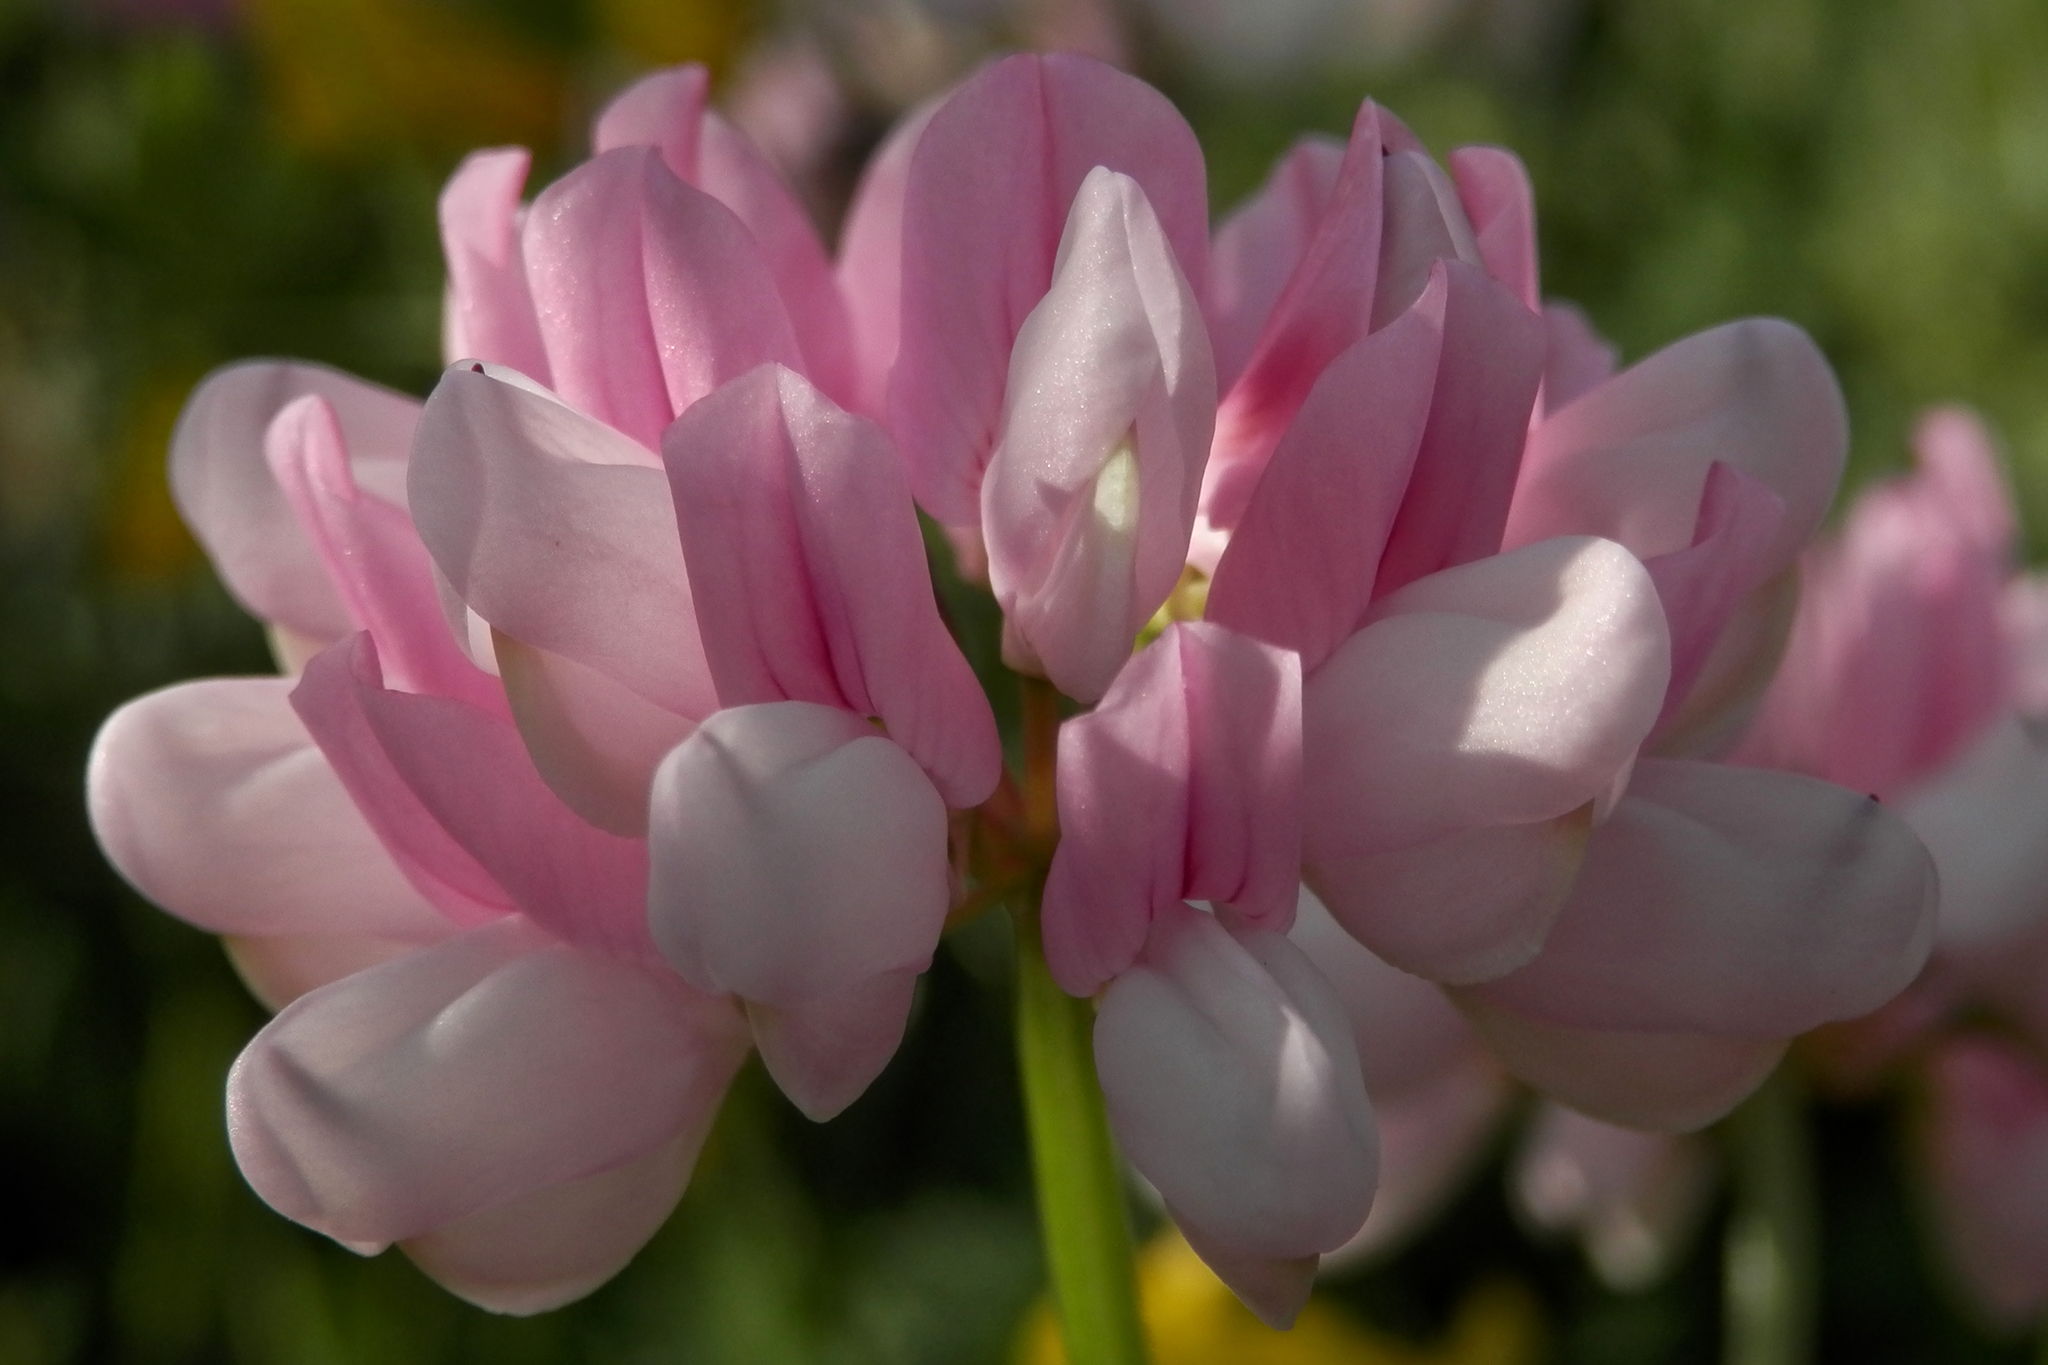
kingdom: Plantae
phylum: Tracheophyta
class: Magnoliopsida
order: Fabales
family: Fabaceae
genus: Coronilla
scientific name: Coronilla varia
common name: Crownvetch
